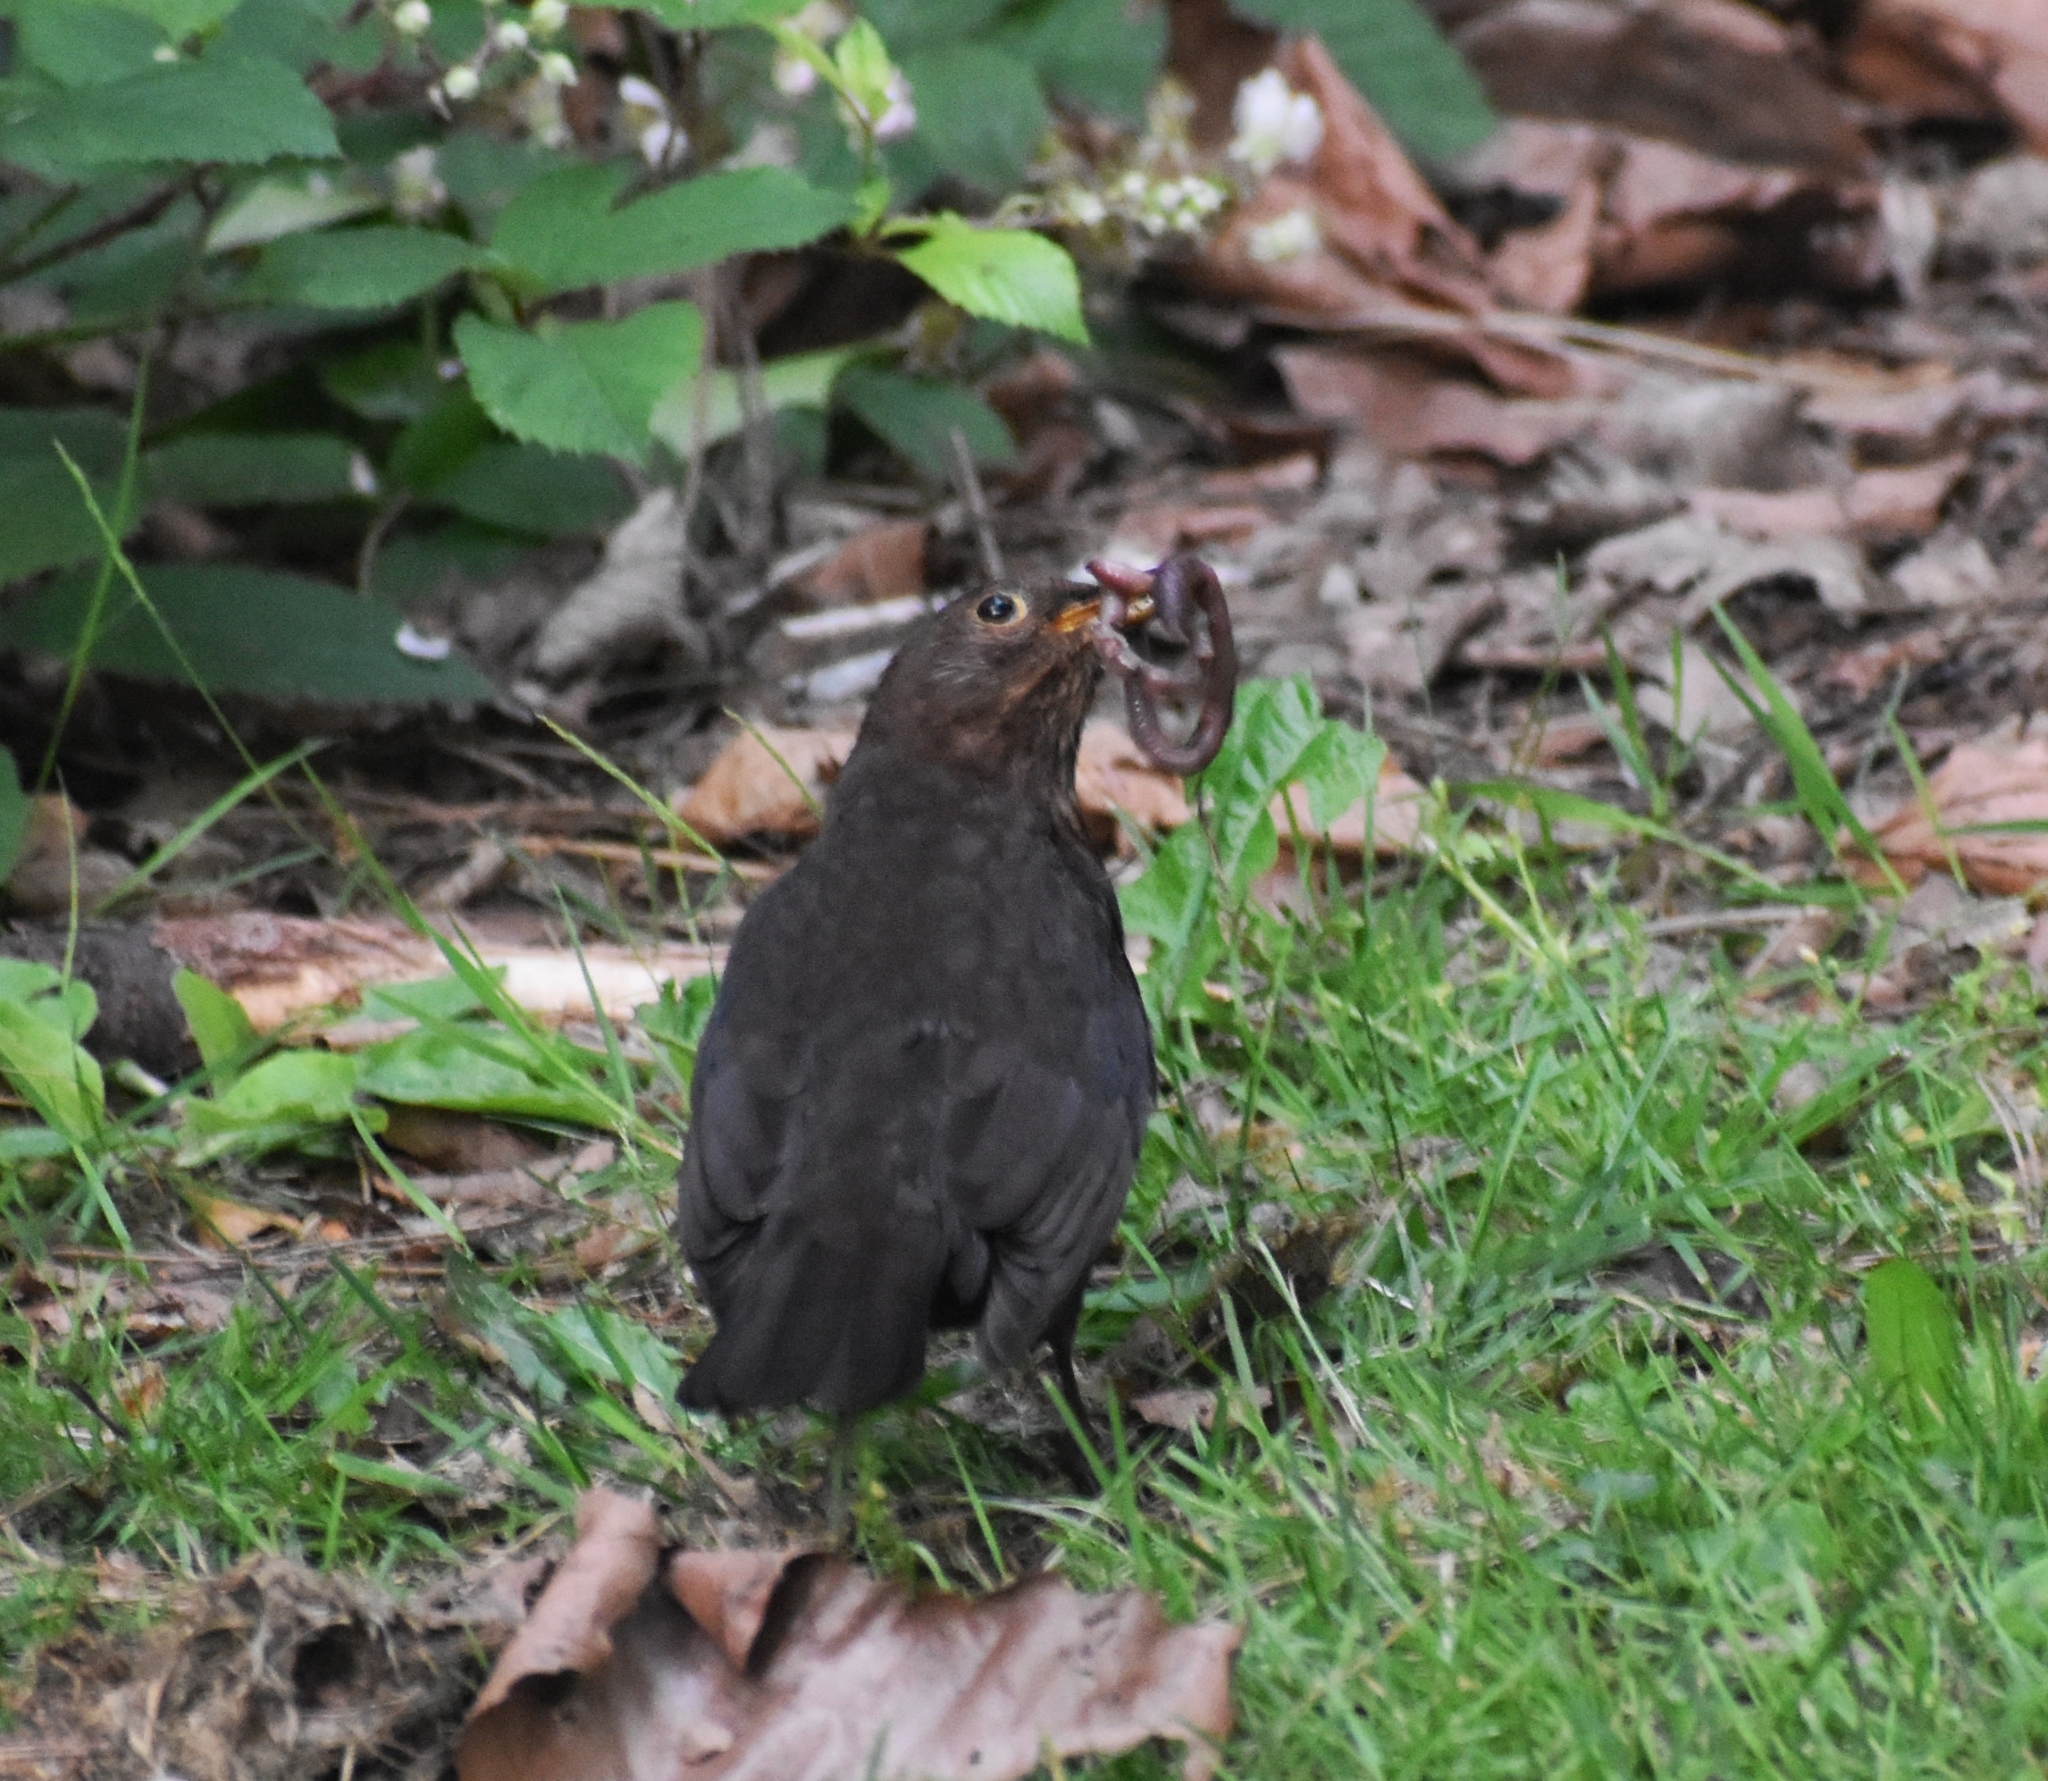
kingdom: Animalia
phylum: Chordata
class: Aves
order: Passeriformes
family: Turdidae
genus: Turdus
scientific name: Turdus merula
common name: Common blackbird
